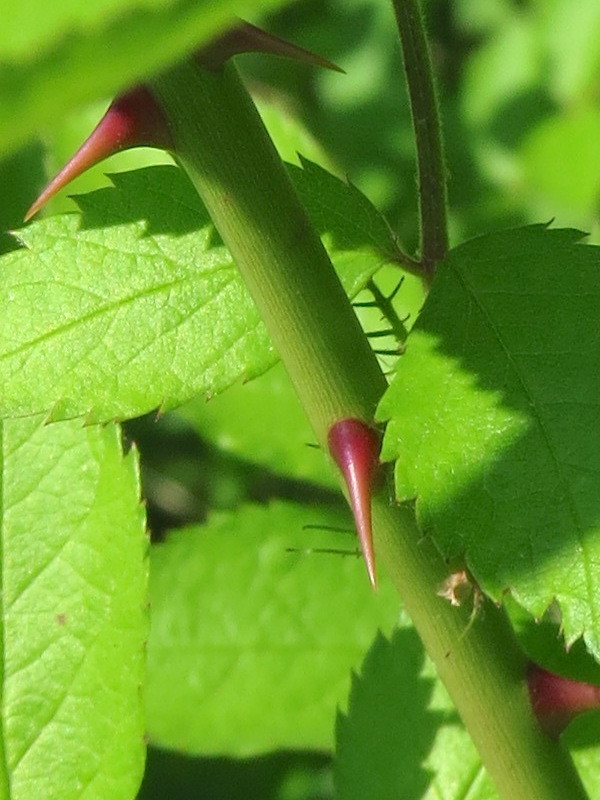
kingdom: Plantae
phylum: Tracheophyta
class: Magnoliopsida
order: Rosales
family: Rosaceae
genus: Rosa
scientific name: Rosa multiflora
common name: Multiflora rose
